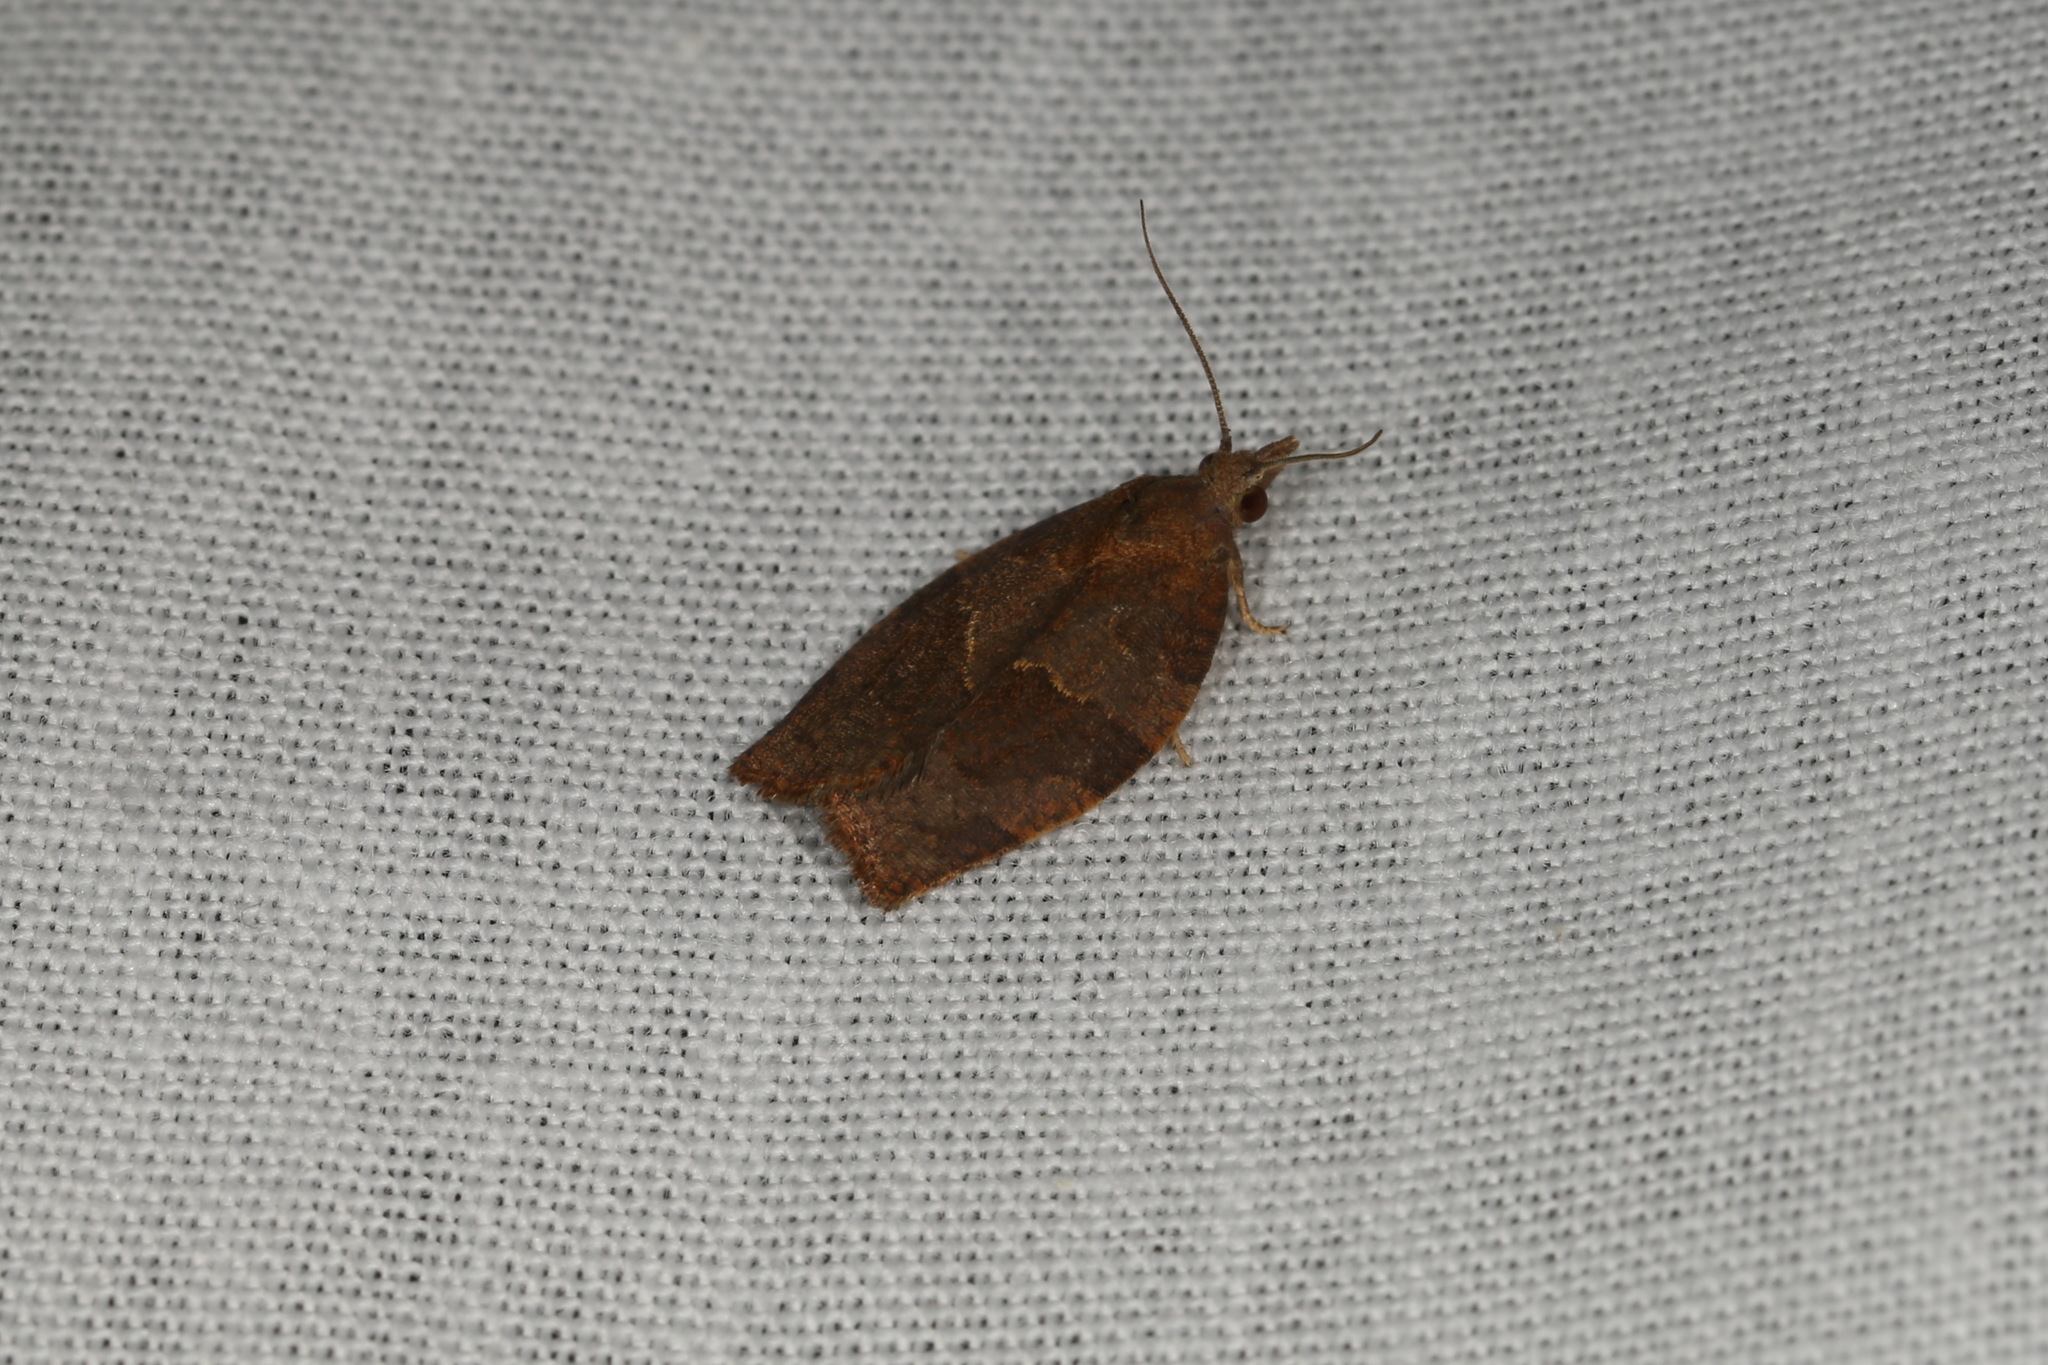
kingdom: Animalia
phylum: Arthropoda
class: Insecta
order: Lepidoptera
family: Tortricidae
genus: Pandemis
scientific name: Pandemis heparana
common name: Dark fruit-tree tortrix
